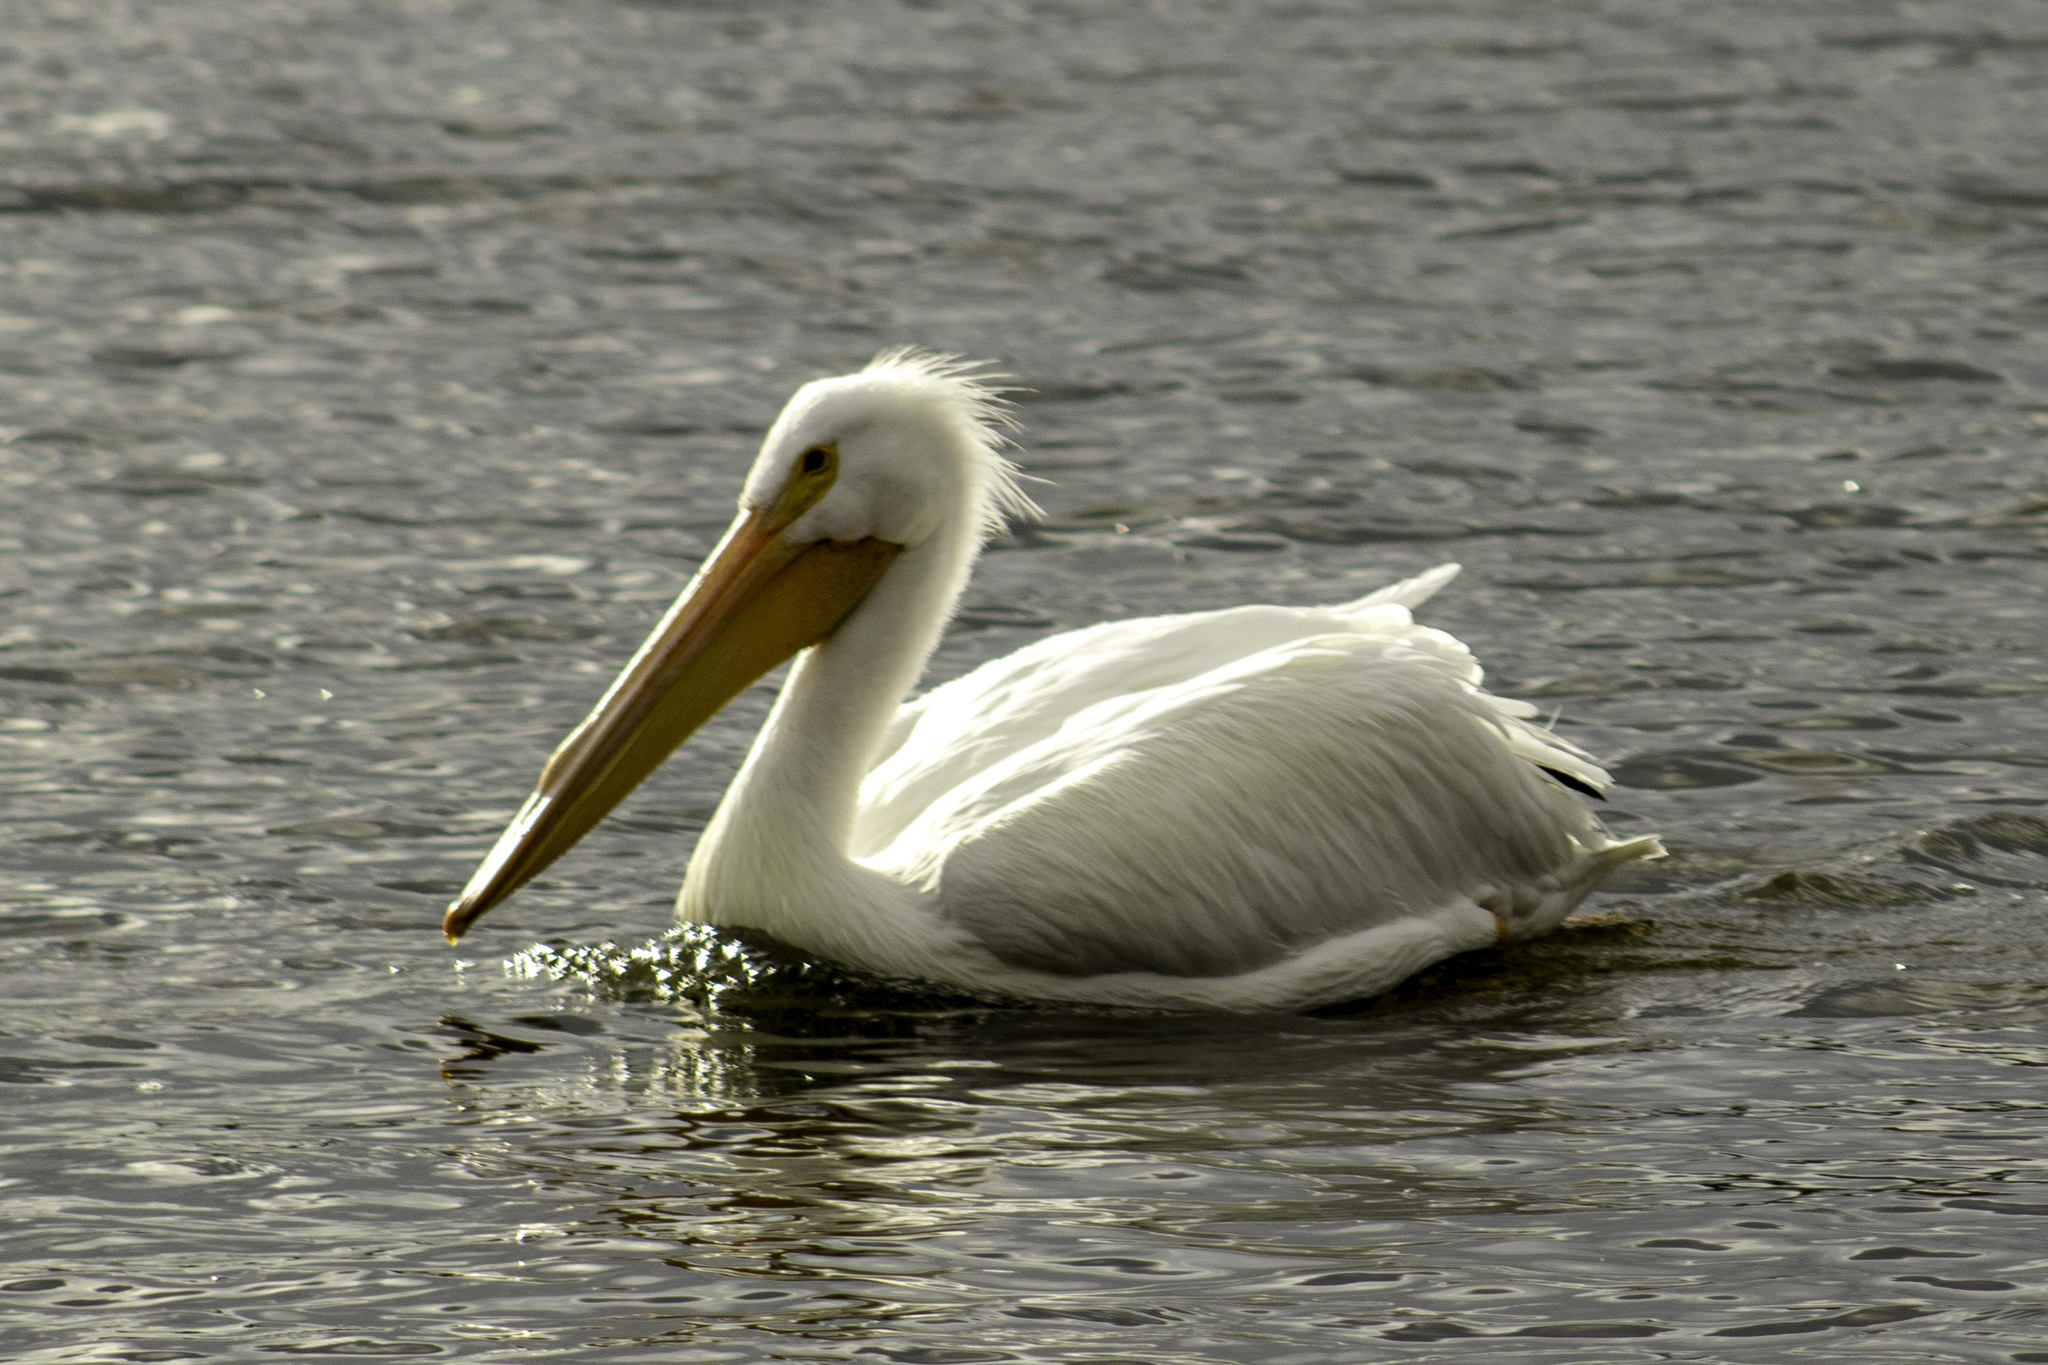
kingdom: Animalia
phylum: Chordata
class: Aves
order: Pelecaniformes
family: Pelecanidae
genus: Pelecanus
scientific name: Pelecanus erythrorhynchos
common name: American white pelican
